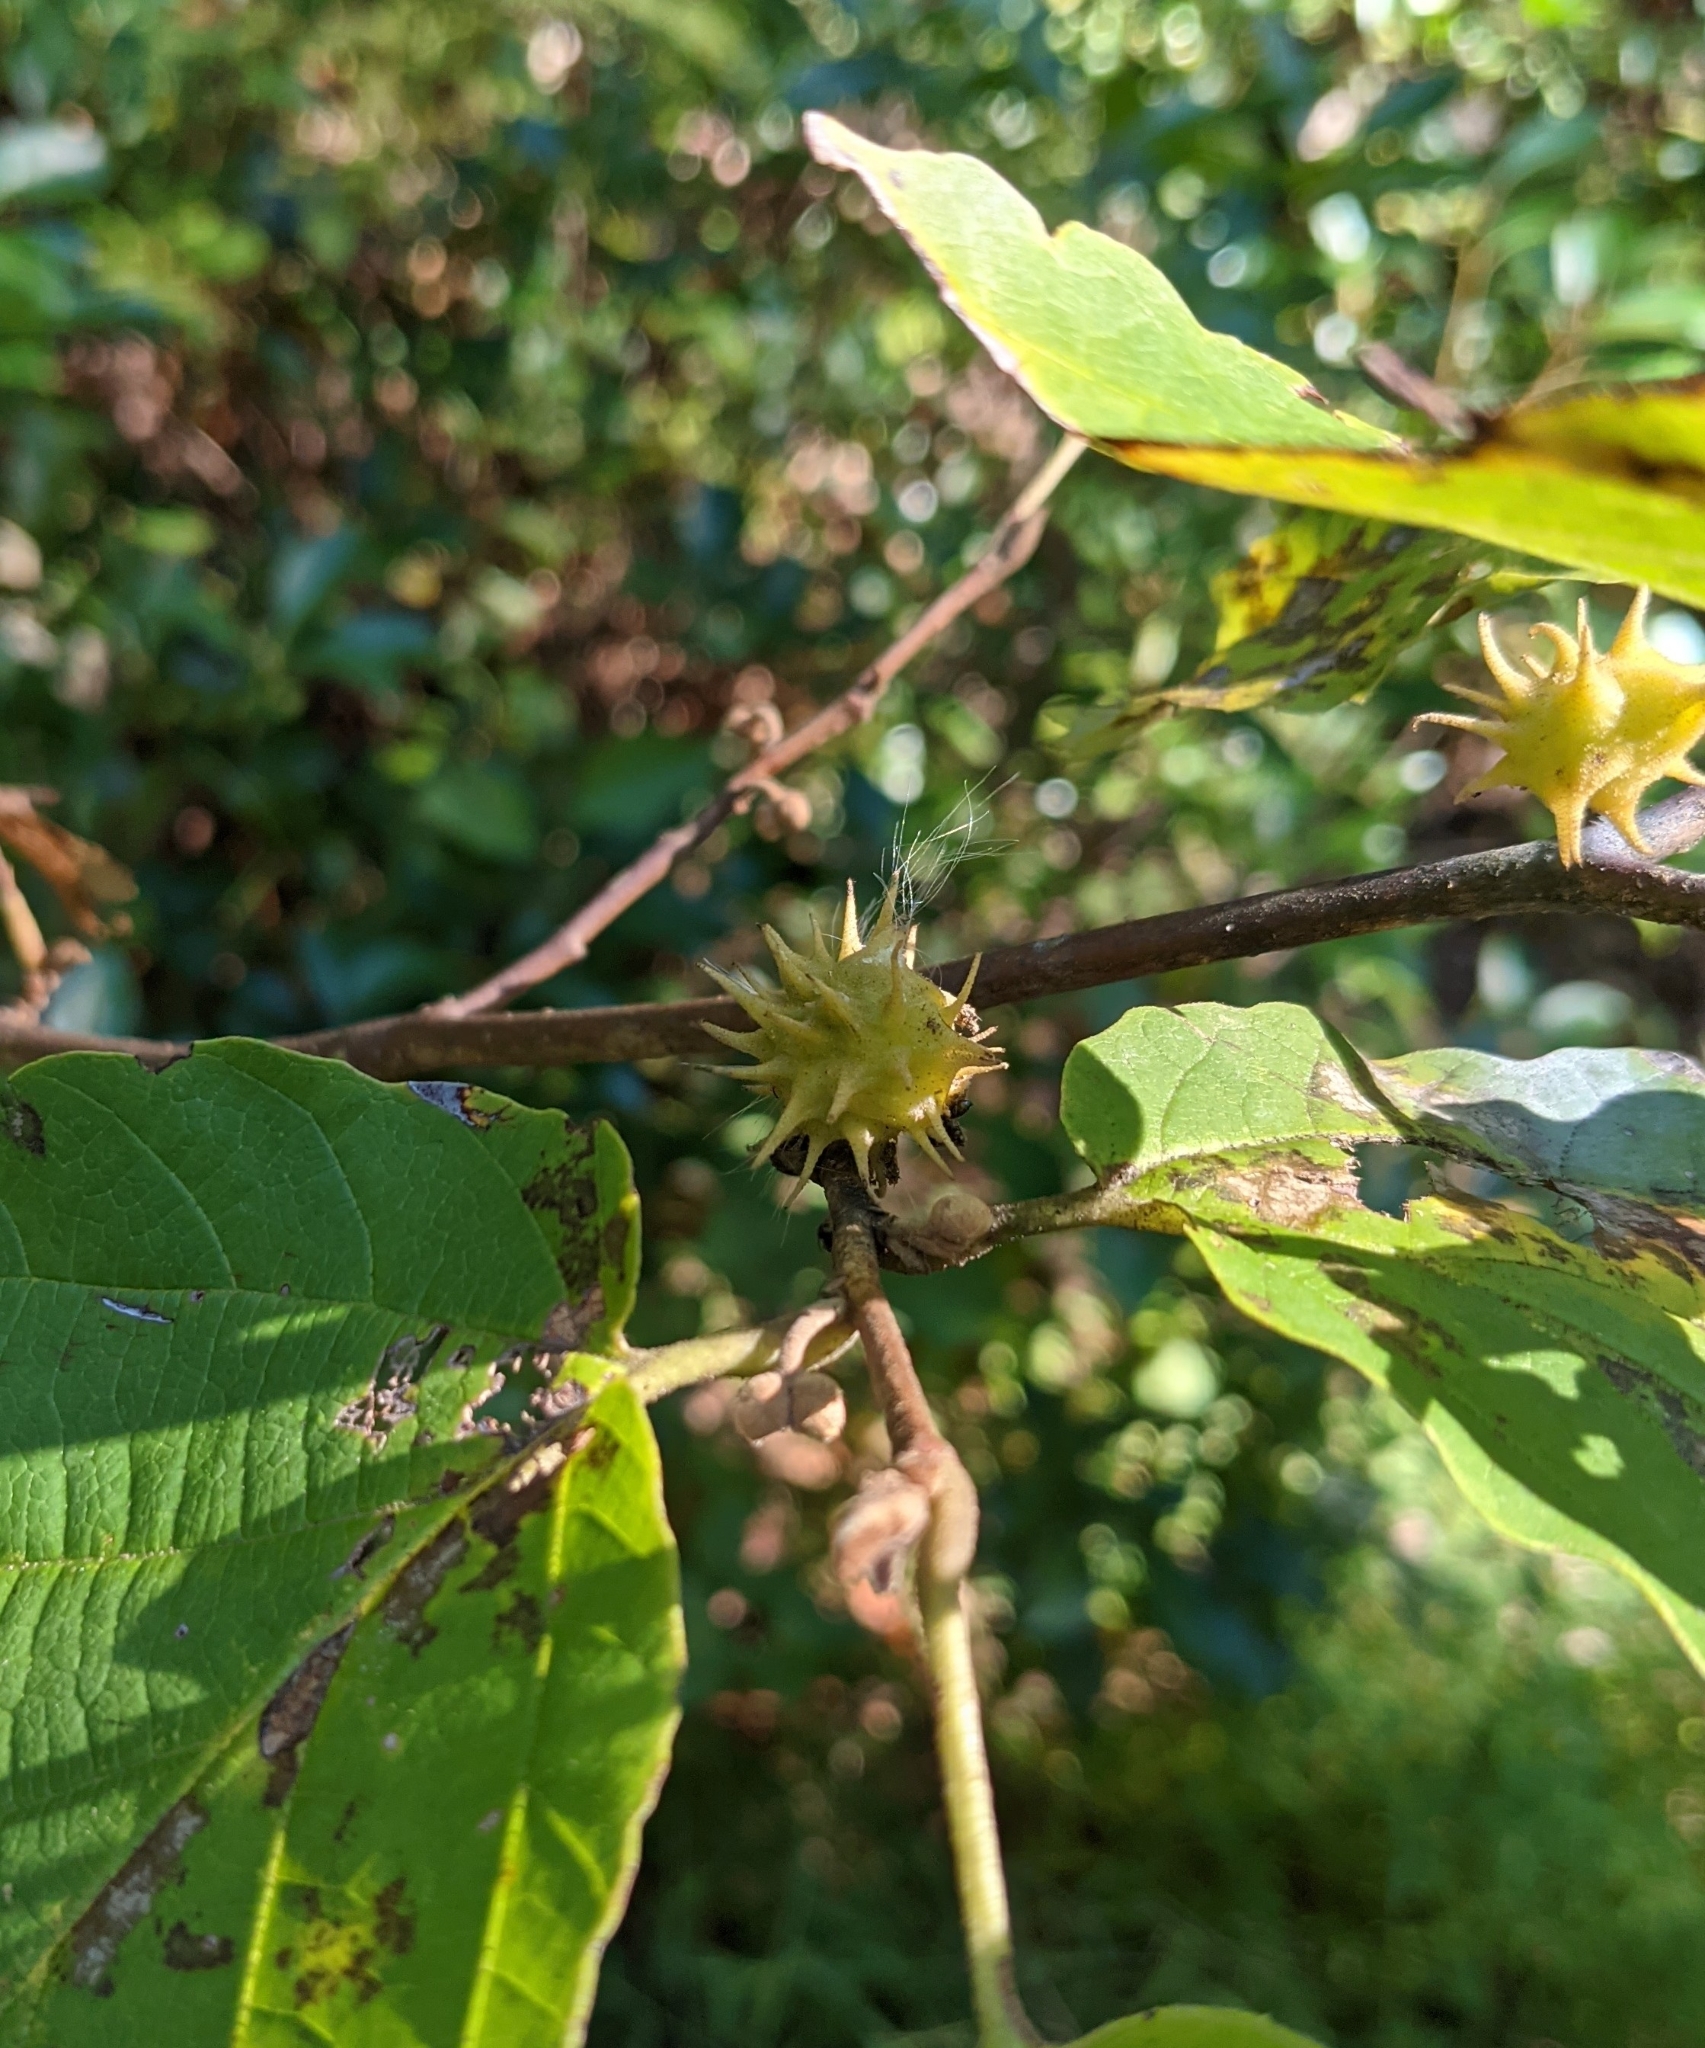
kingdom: Animalia
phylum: Arthropoda
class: Insecta
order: Hemiptera
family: Aphididae
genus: Hamamelistes
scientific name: Hamamelistes spinosus
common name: Witch hazel gall aphid
